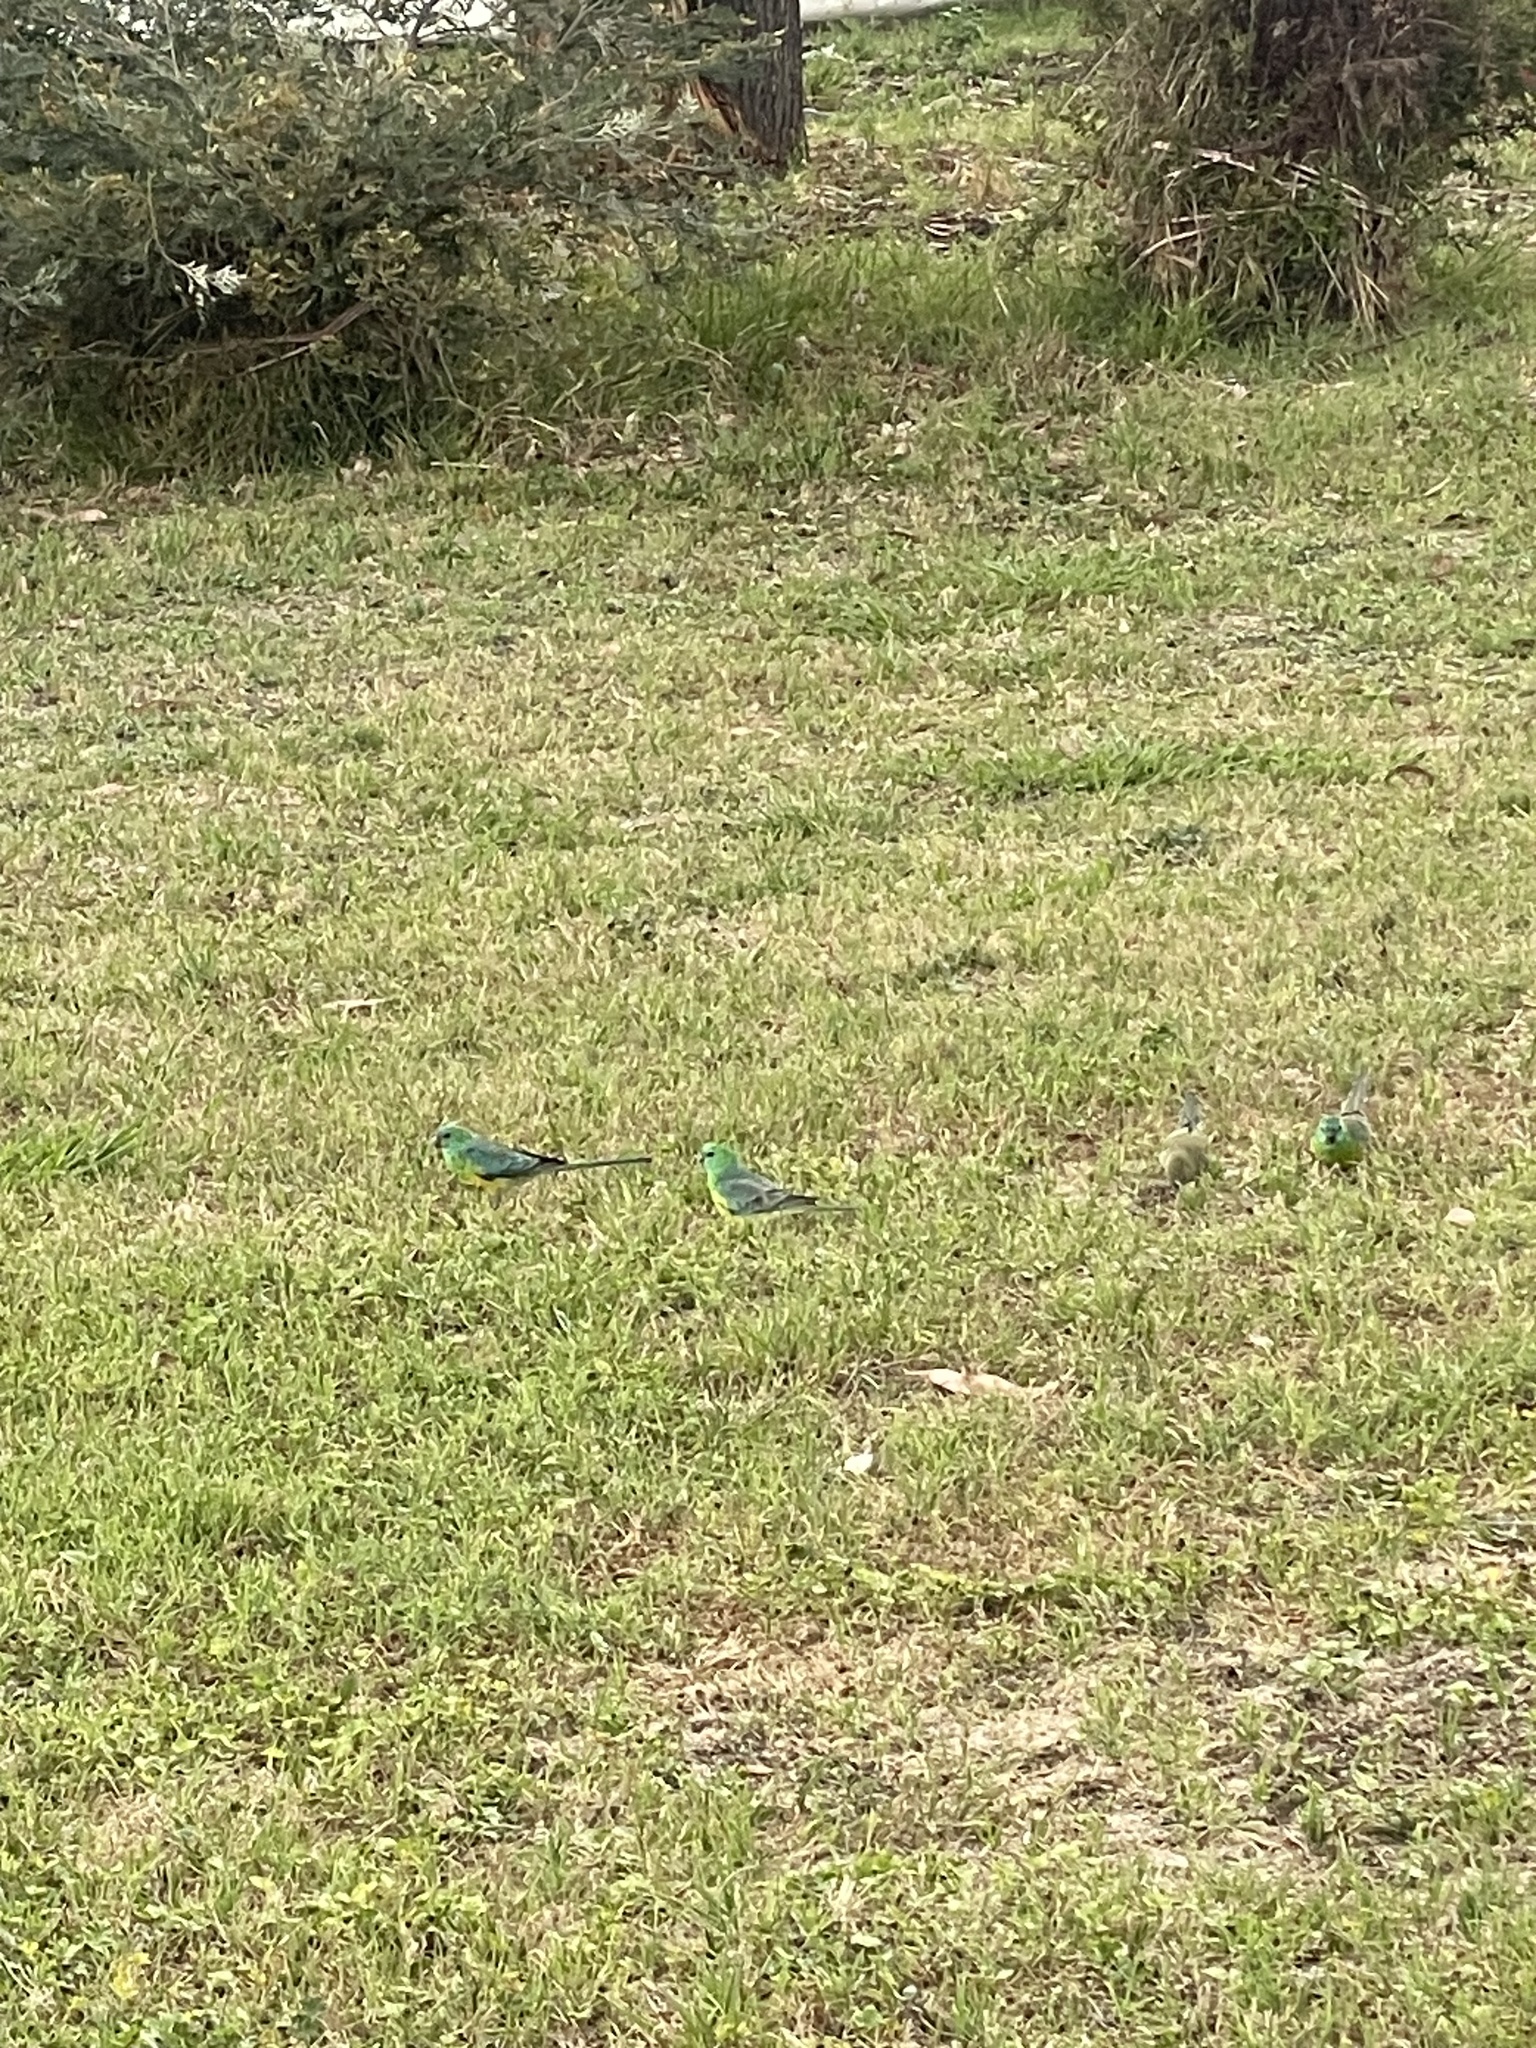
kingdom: Animalia
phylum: Chordata
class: Aves
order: Psittaciformes
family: Psittacidae
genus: Psephotus
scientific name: Psephotus haematonotus
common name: Red-rumped parrot
